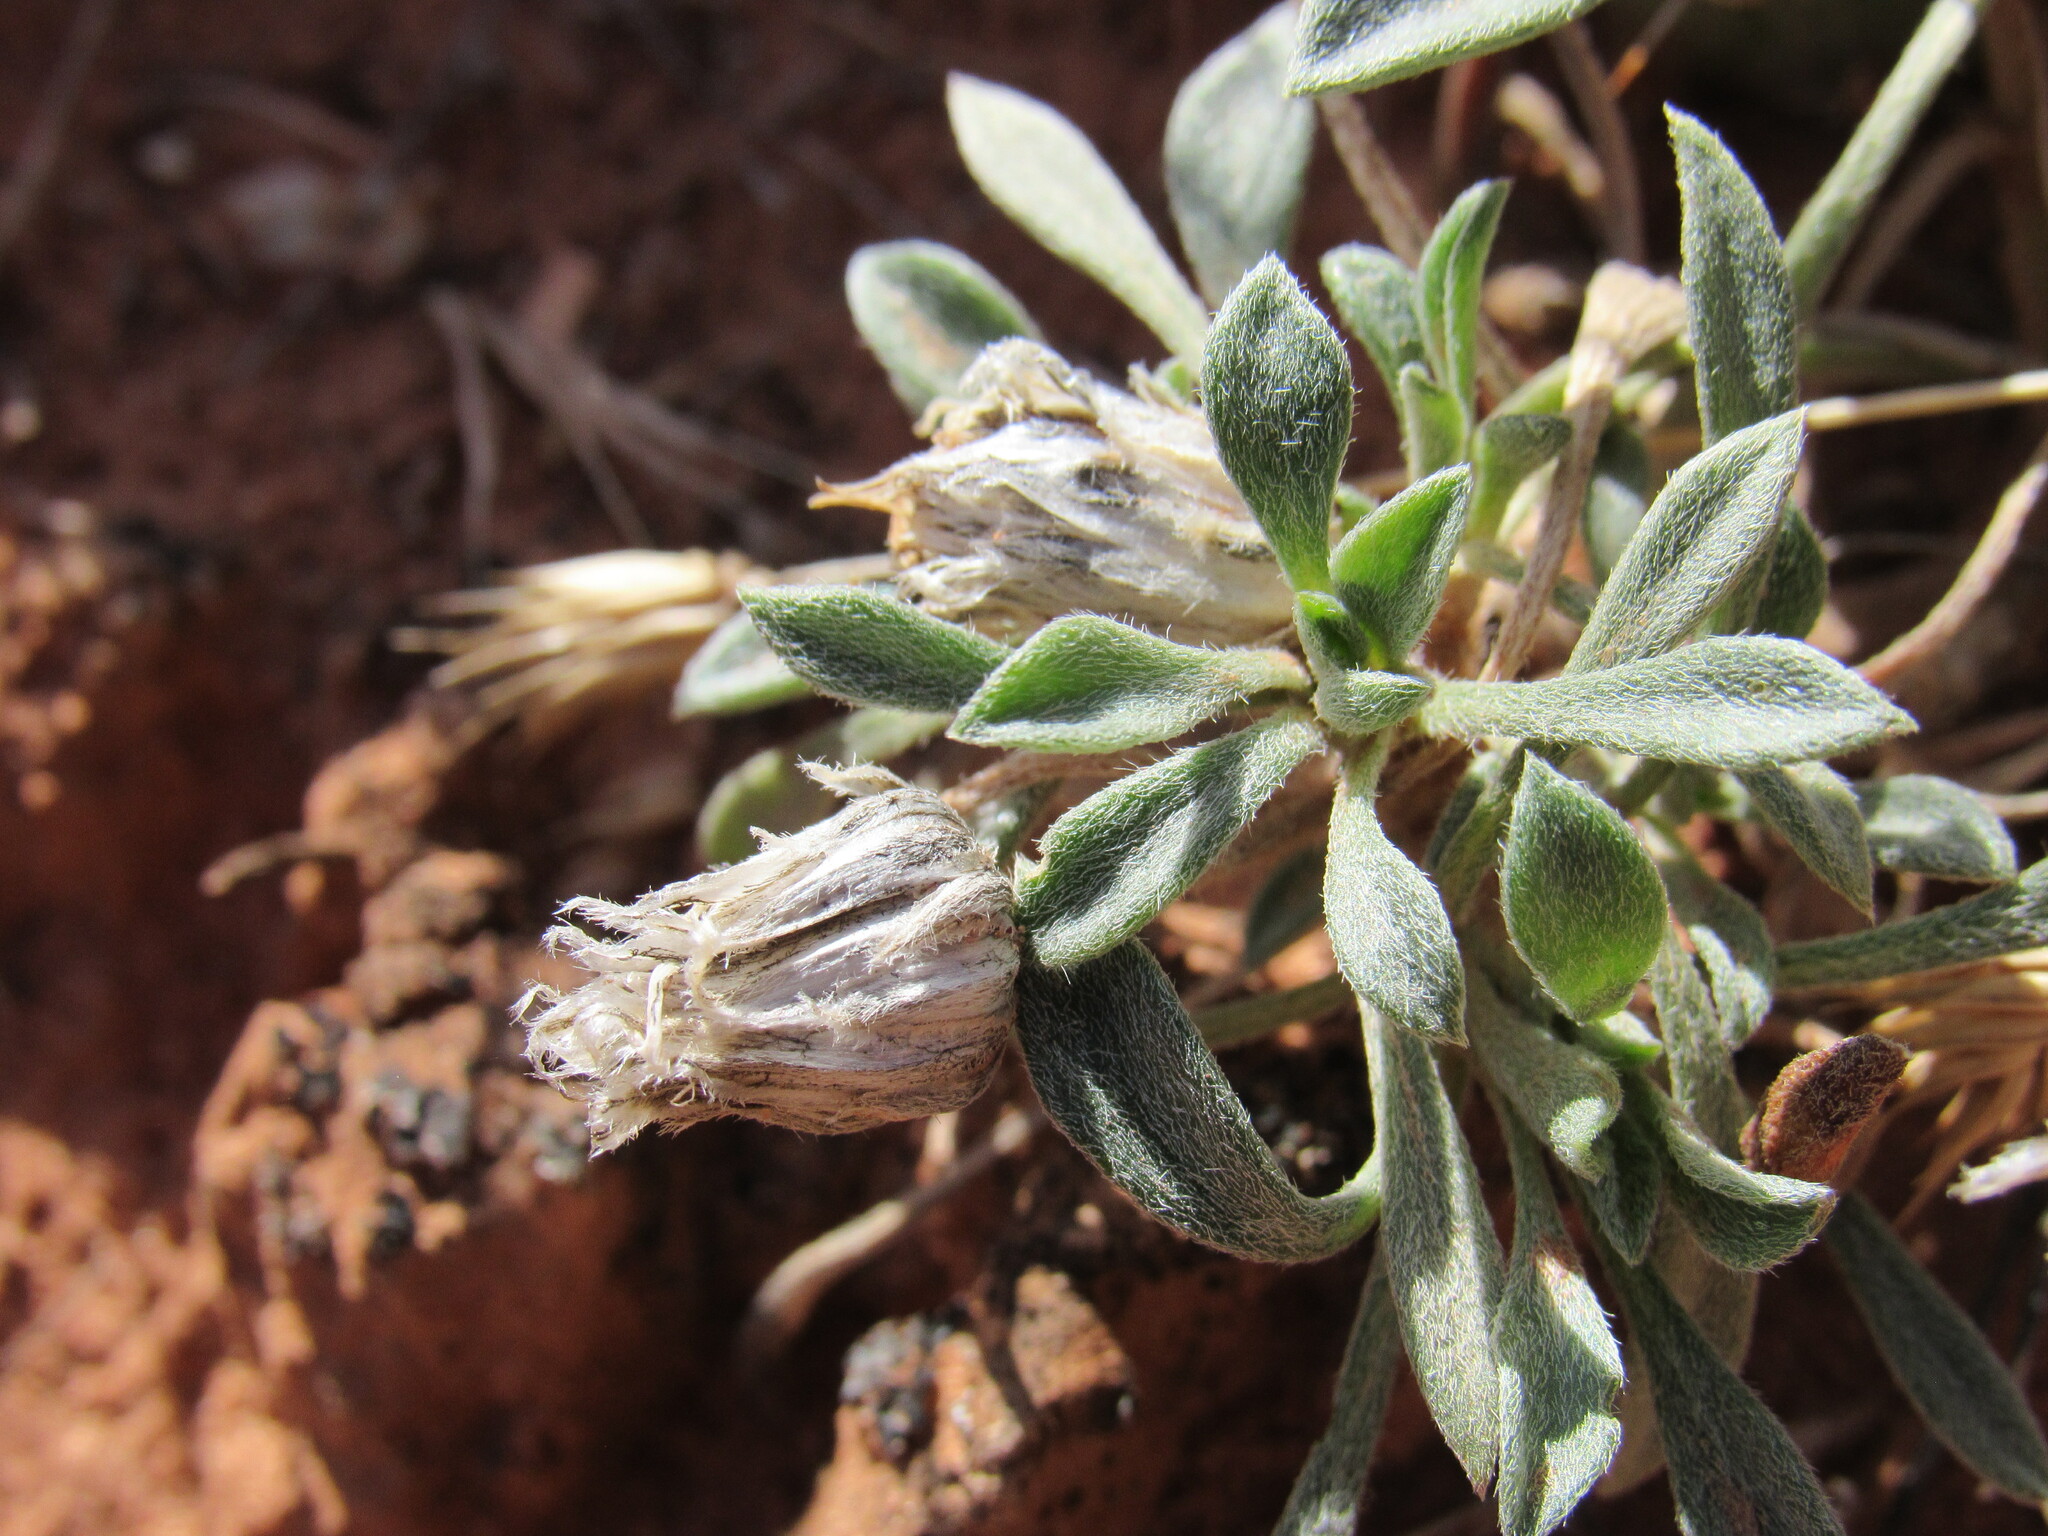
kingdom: Plantae
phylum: Tracheophyta
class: Magnoliopsida
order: Asterales
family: Asteraceae
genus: Townsendia
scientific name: Townsendia incana
